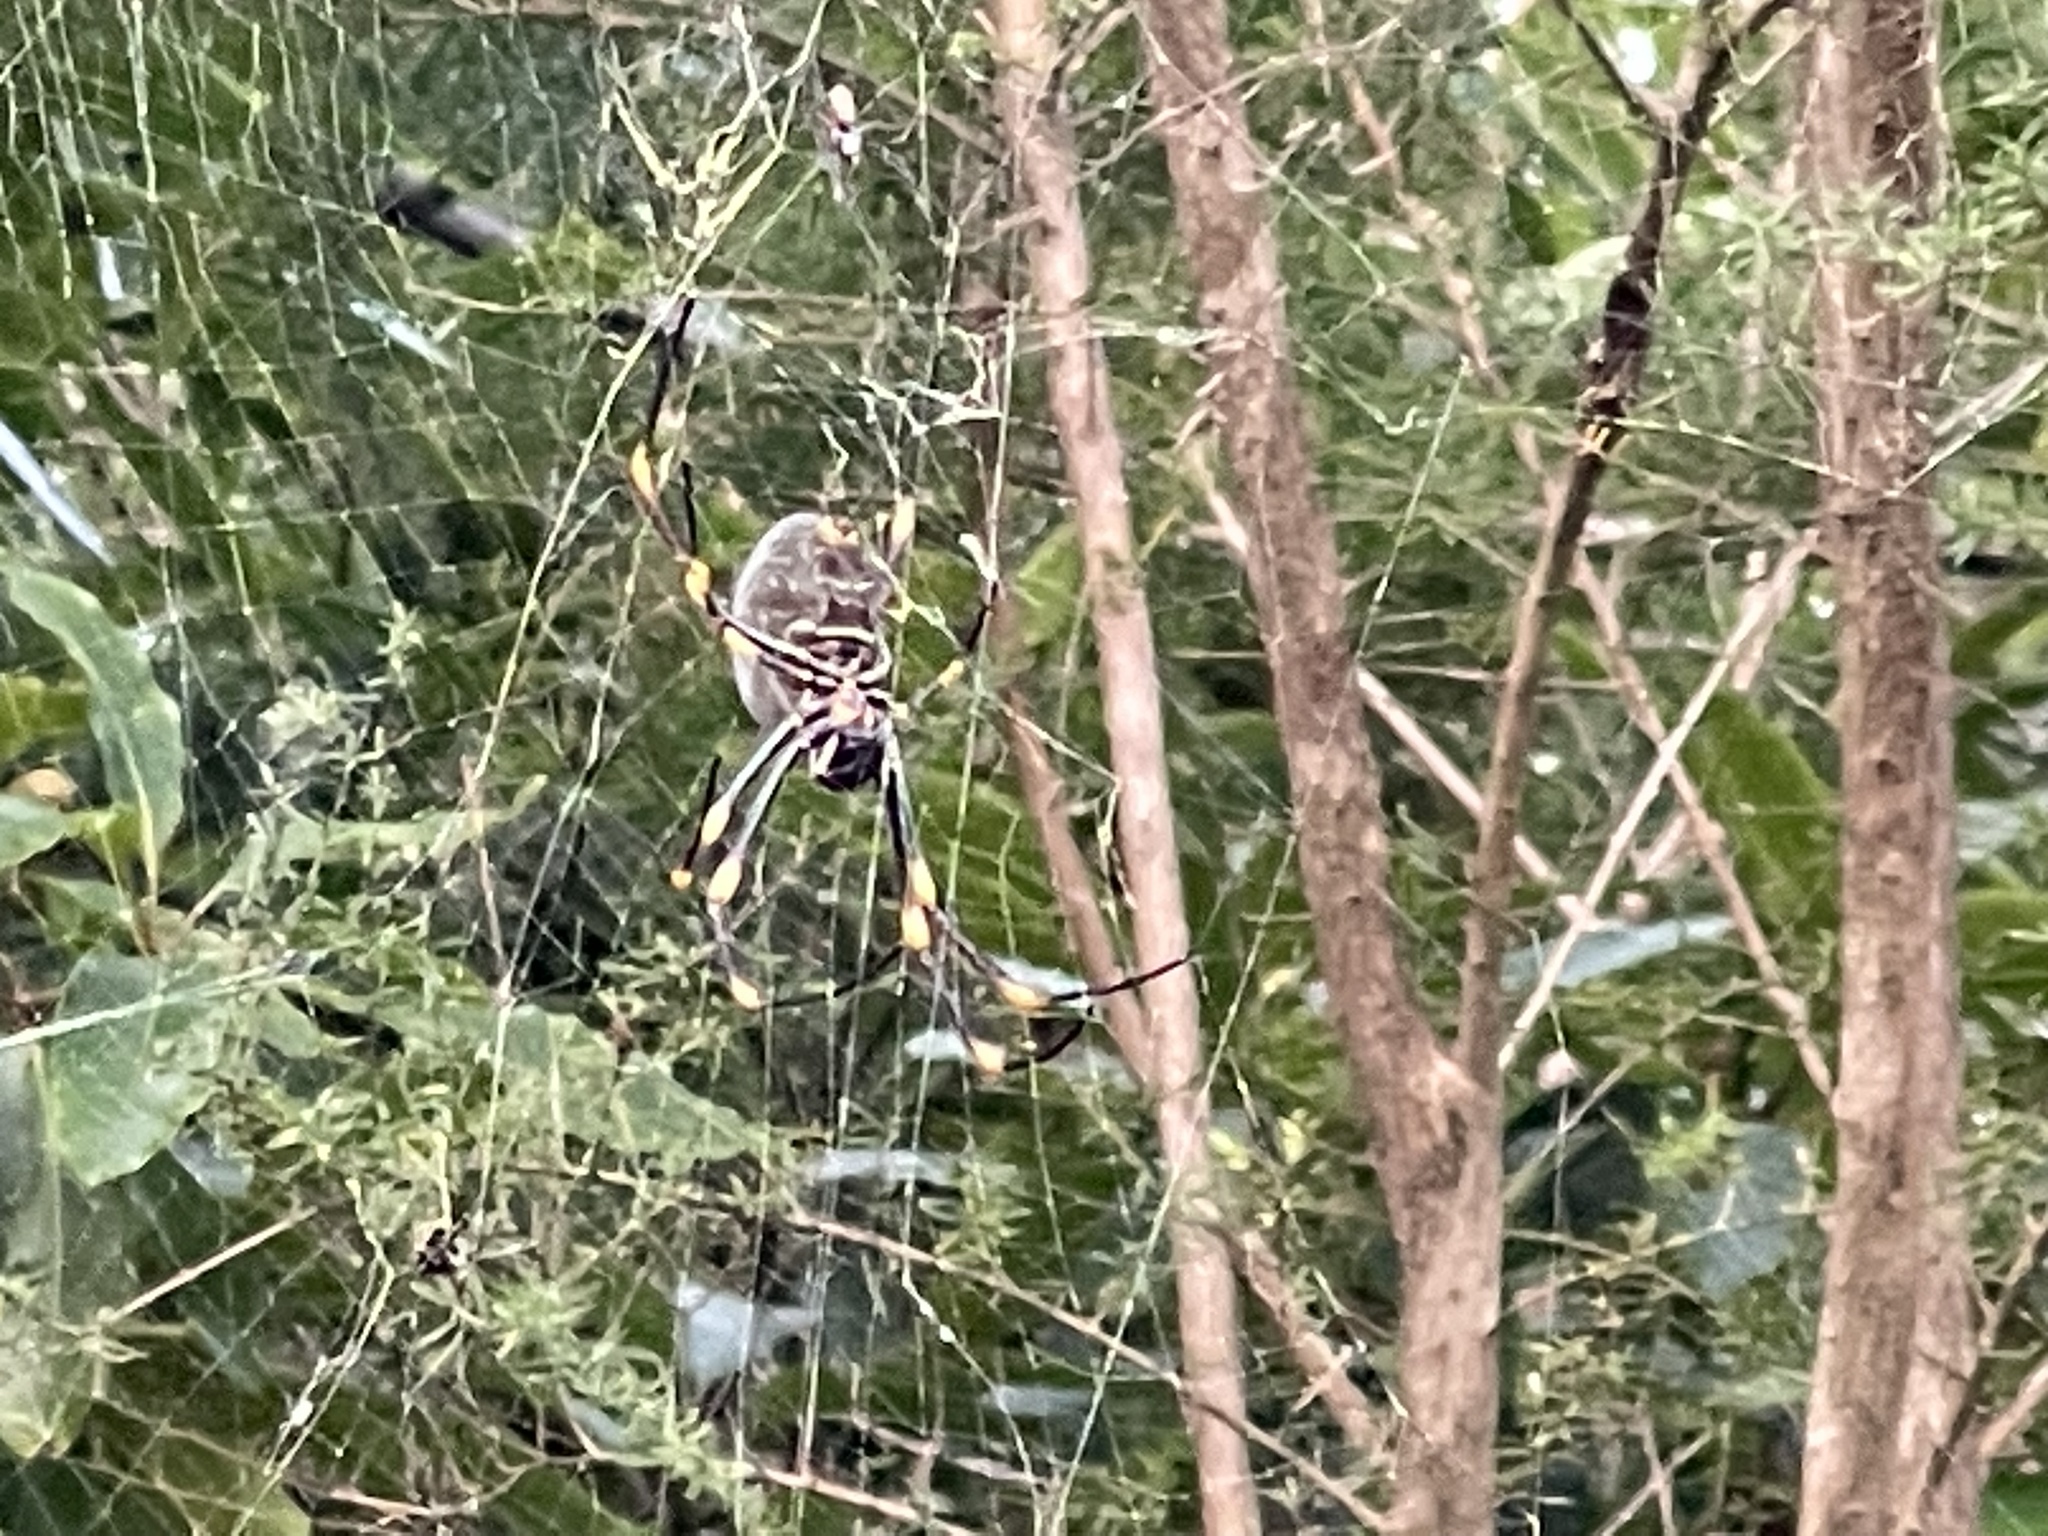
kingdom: Animalia
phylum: Arthropoda
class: Arachnida
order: Araneae
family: Araneidae
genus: Trichonephila
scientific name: Trichonephila plumipes
